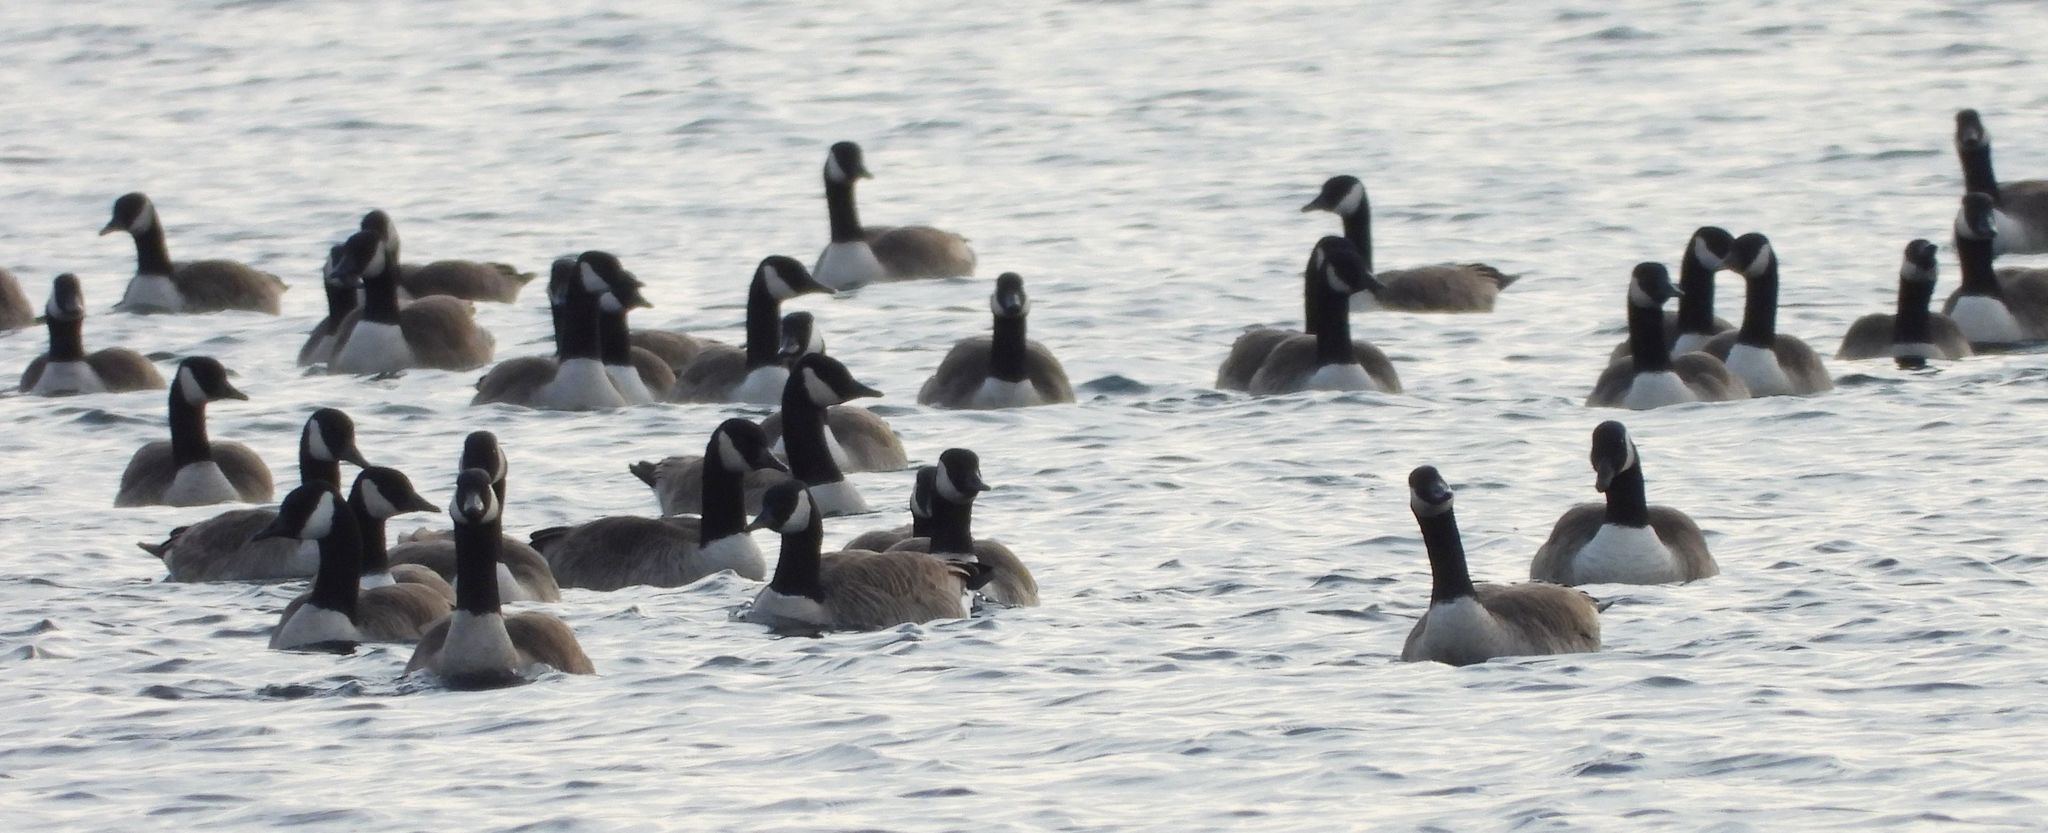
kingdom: Animalia
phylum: Chordata
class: Aves
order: Anseriformes
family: Anatidae
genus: Branta
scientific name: Branta canadensis
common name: Canada goose
